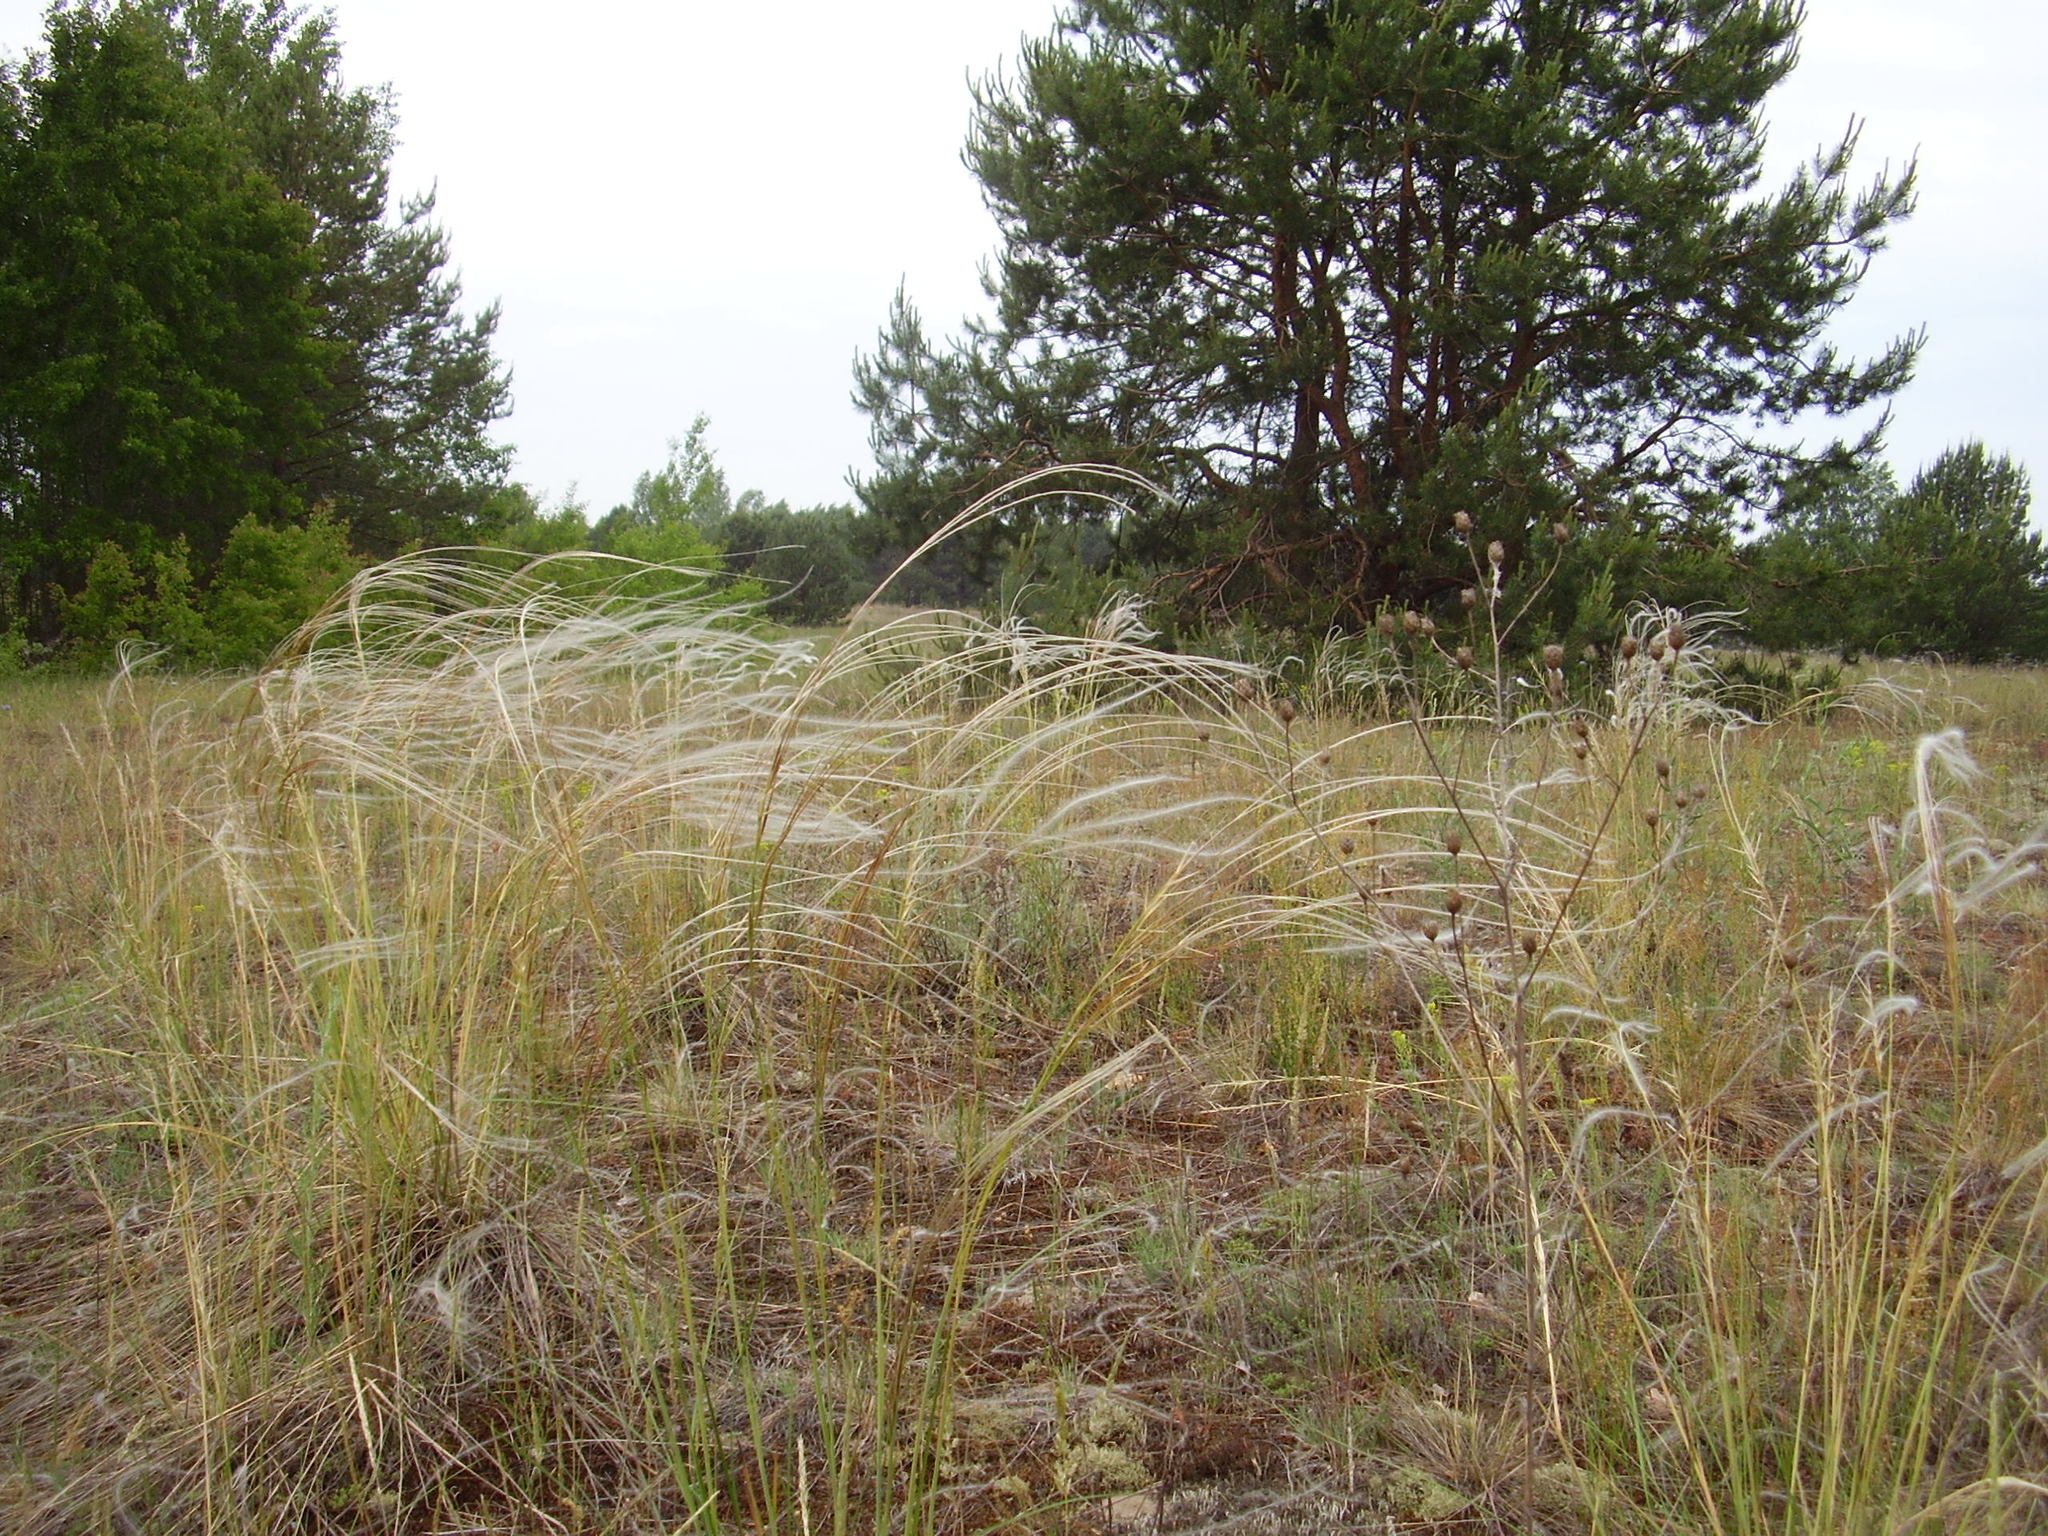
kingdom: Plantae
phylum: Tracheophyta
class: Liliopsida
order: Poales
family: Poaceae
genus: Stipa
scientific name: Stipa borysthenica
